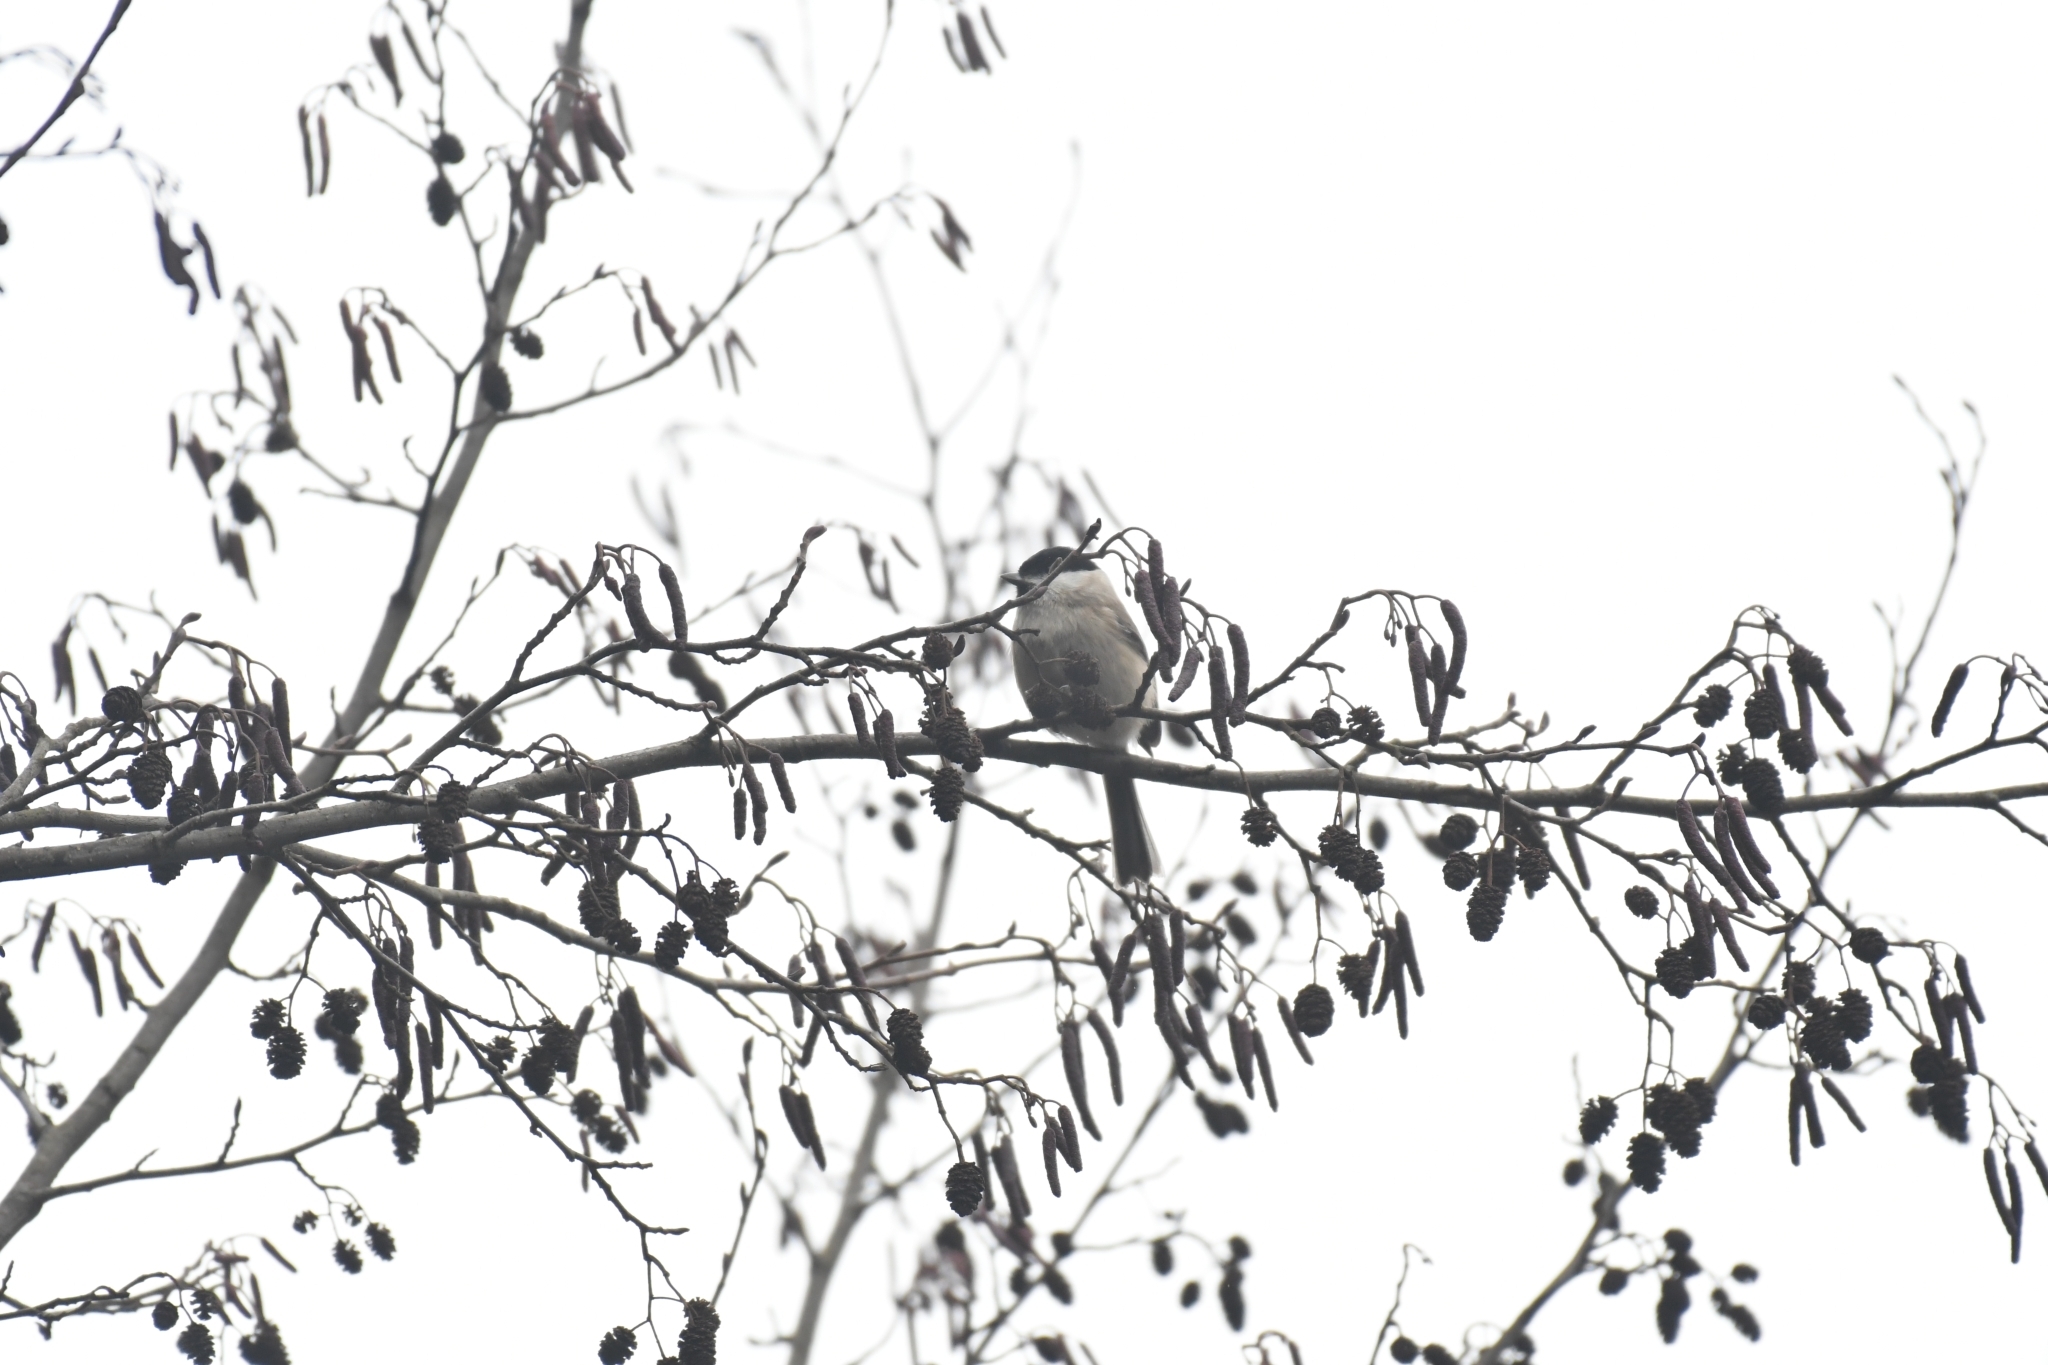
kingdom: Animalia
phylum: Chordata
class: Aves
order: Passeriformes
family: Paridae
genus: Poecile
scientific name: Poecile palustris
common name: Marsh tit
